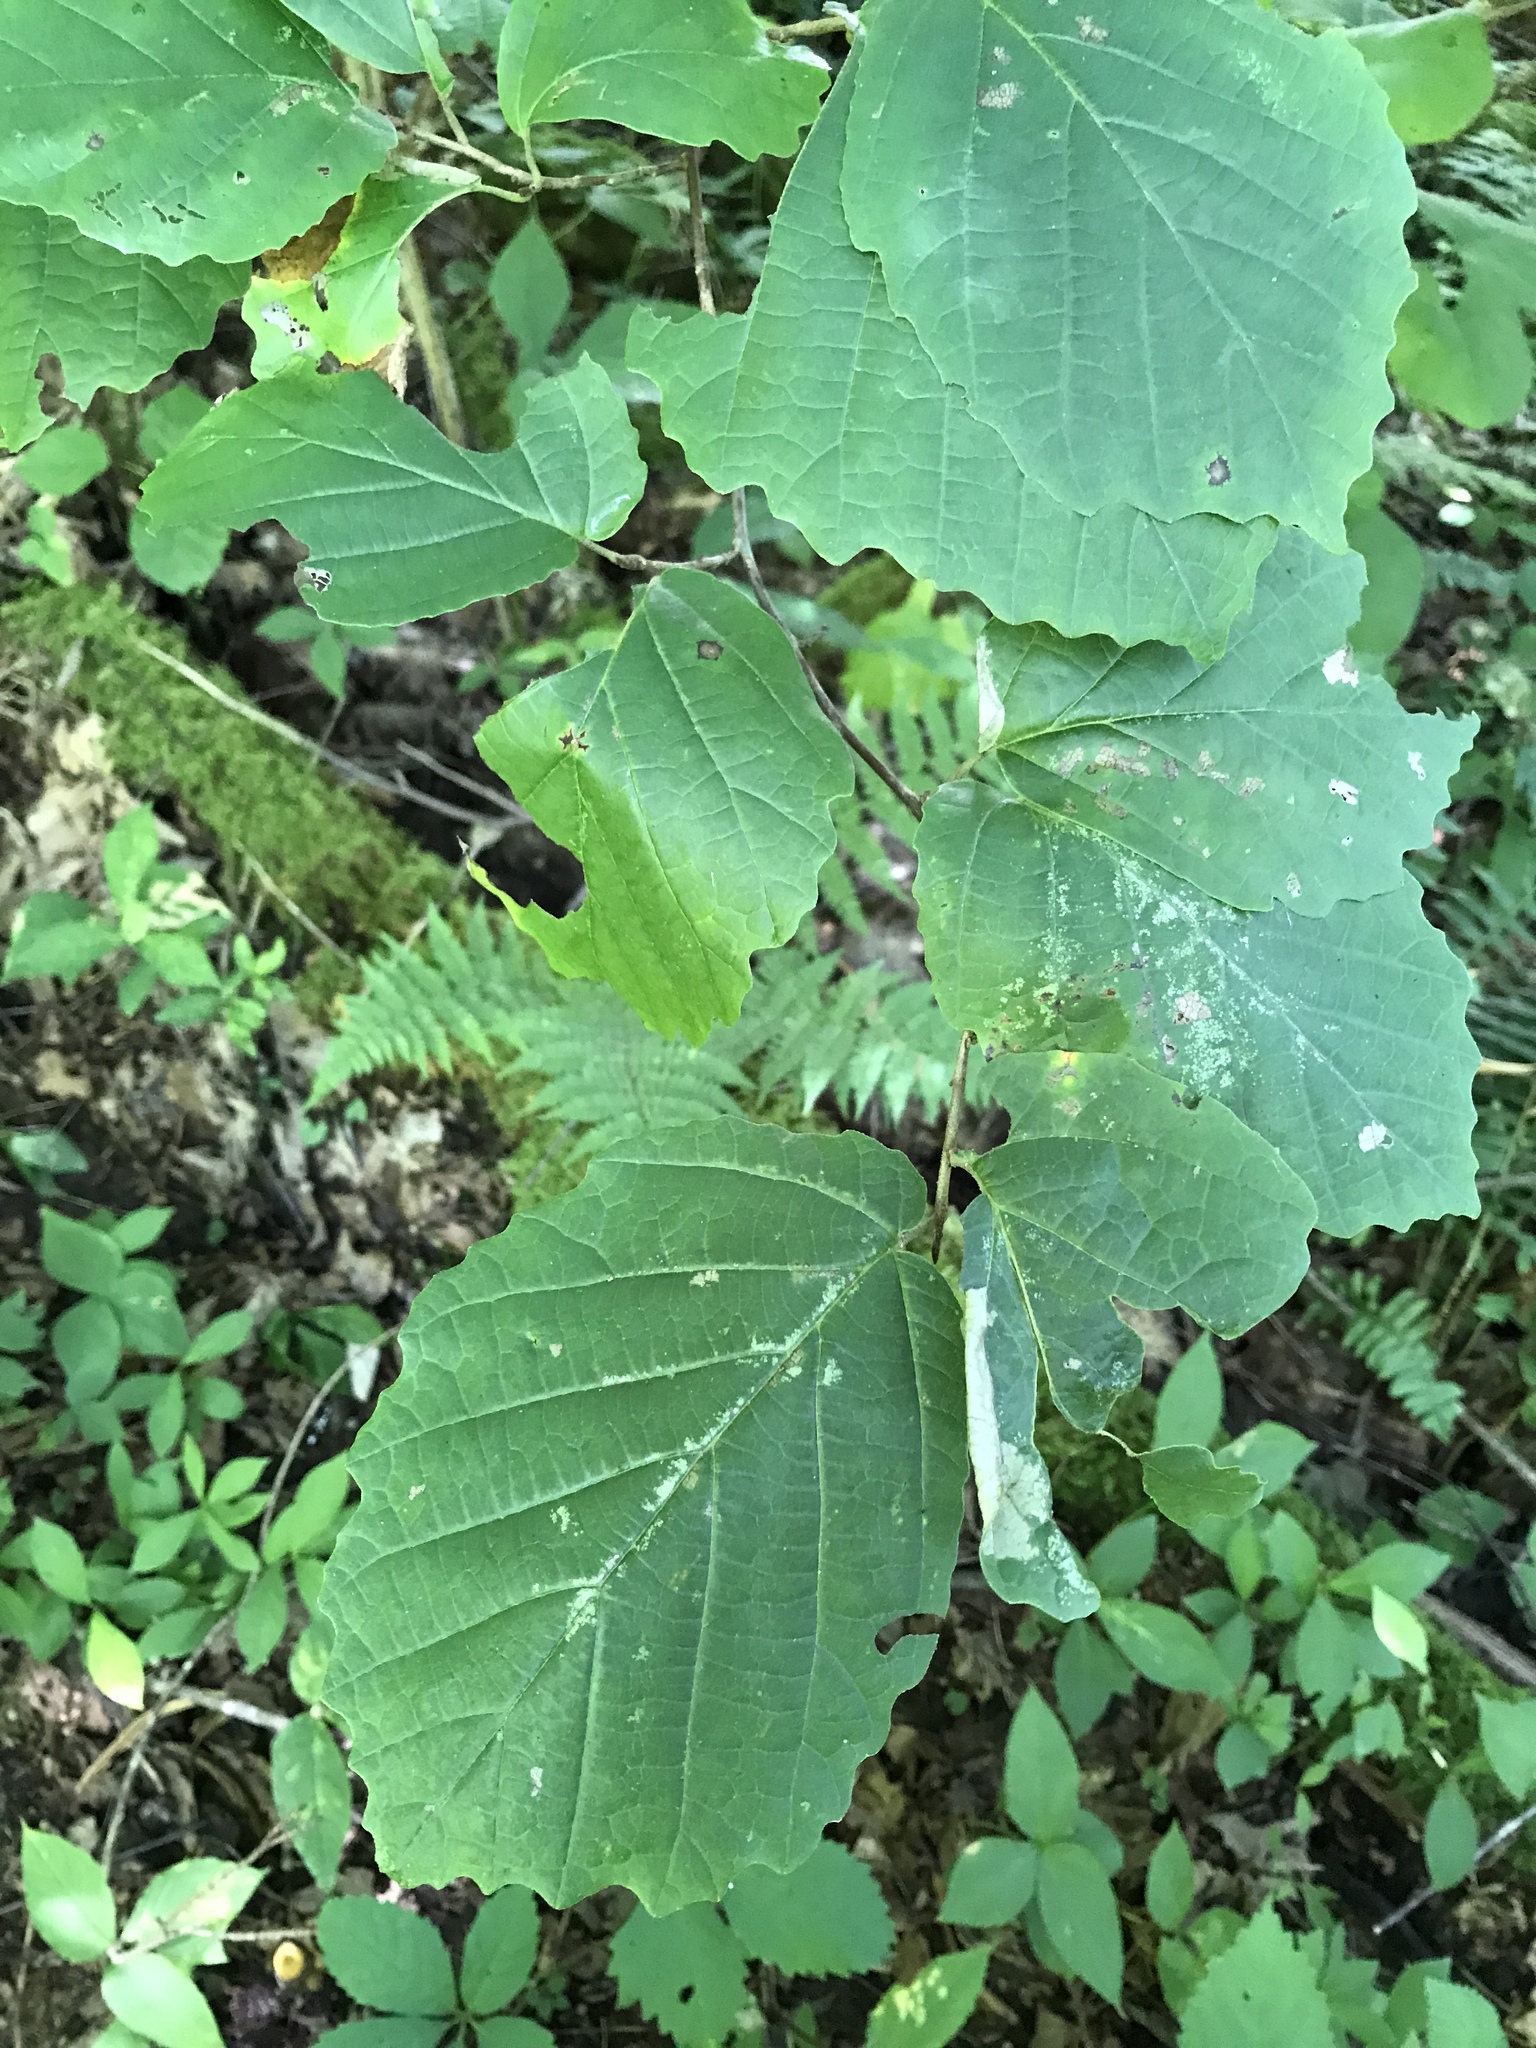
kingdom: Plantae
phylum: Tracheophyta
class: Magnoliopsida
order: Saxifragales
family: Hamamelidaceae
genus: Hamamelis
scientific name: Hamamelis virginiana
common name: Witch-hazel
